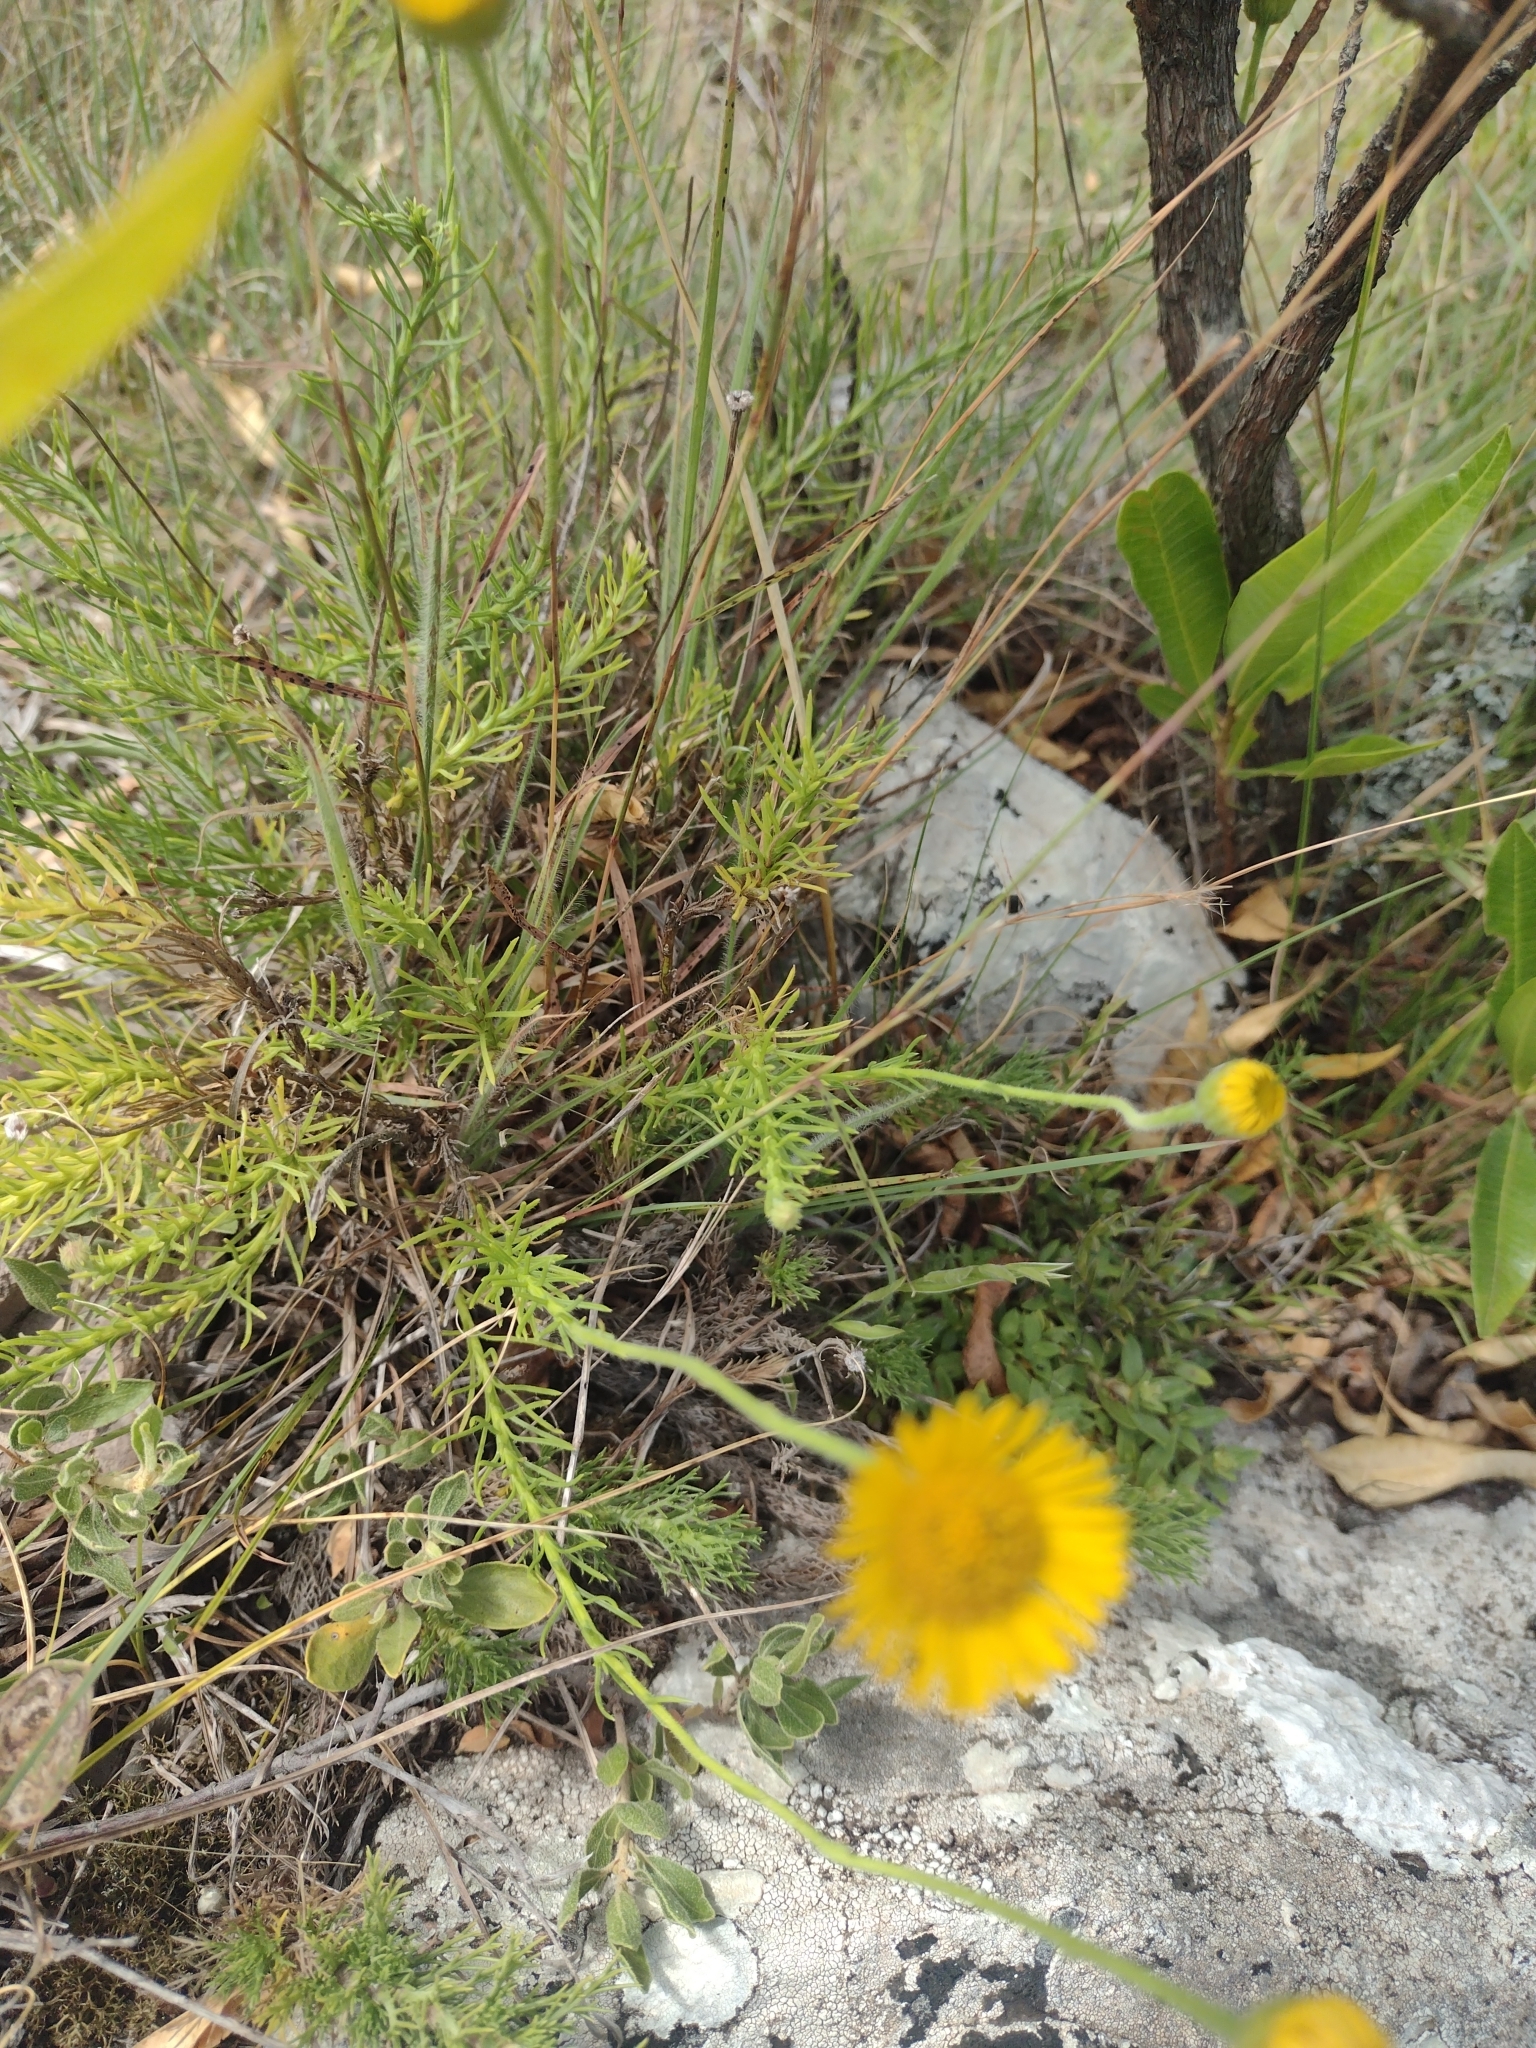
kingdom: Plantae
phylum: Tracheophyta
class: Magnoliopsida
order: Asterales
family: Asteraceae
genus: Neja
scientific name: Neja pinifolia
